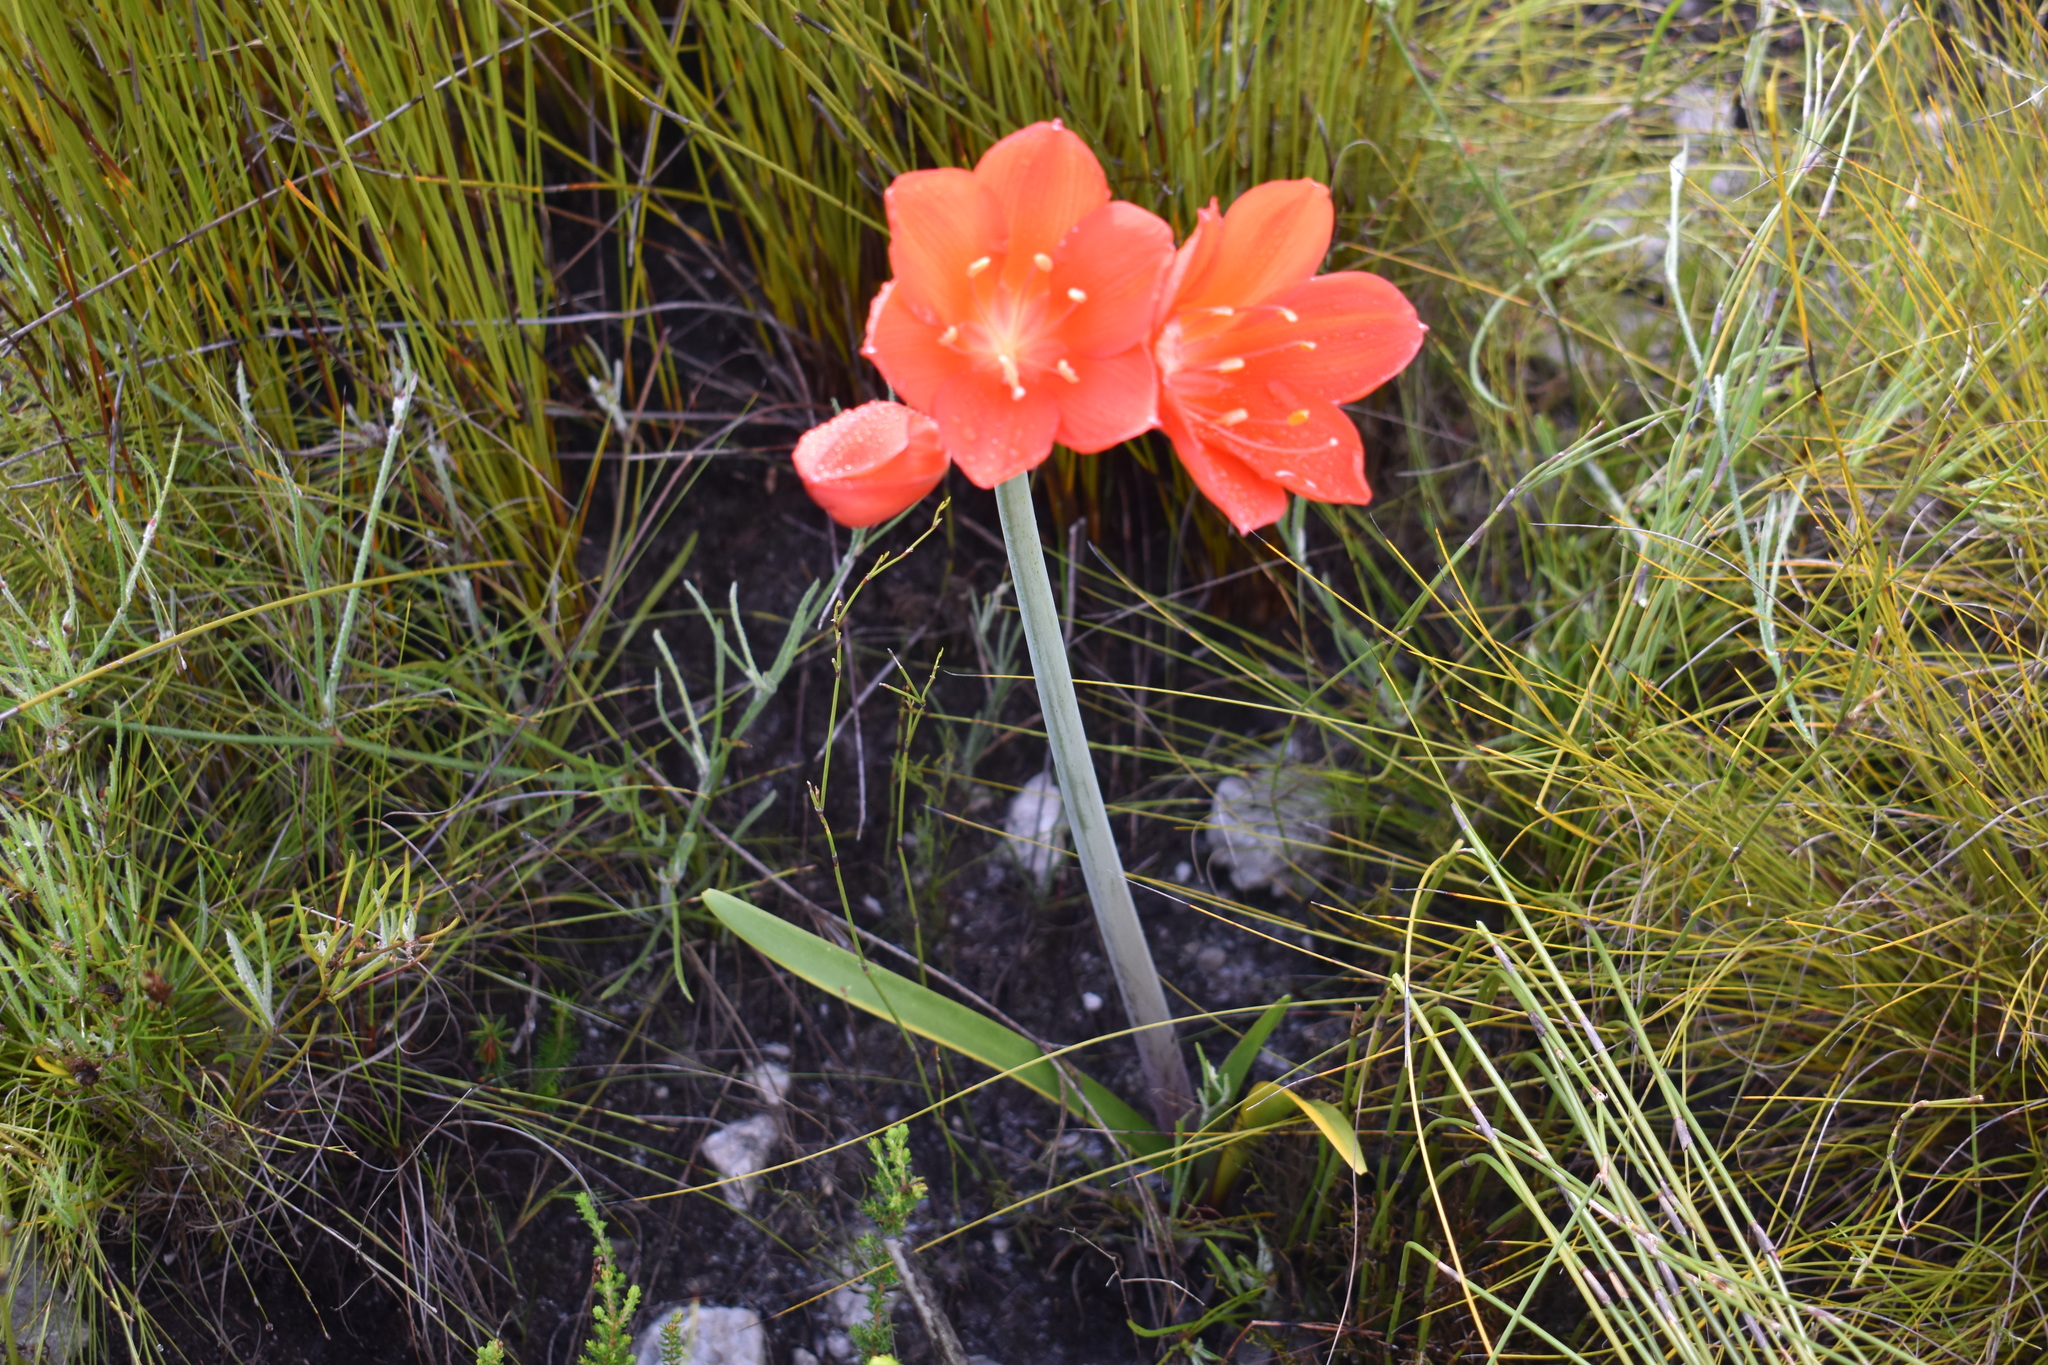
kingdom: Plantae
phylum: Tracheophyta
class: Liliopsida
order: Asparagales
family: Amaryllidaceae
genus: Cyrtanthus
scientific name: Cyrtanthus elatus
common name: Scarborough-lily
